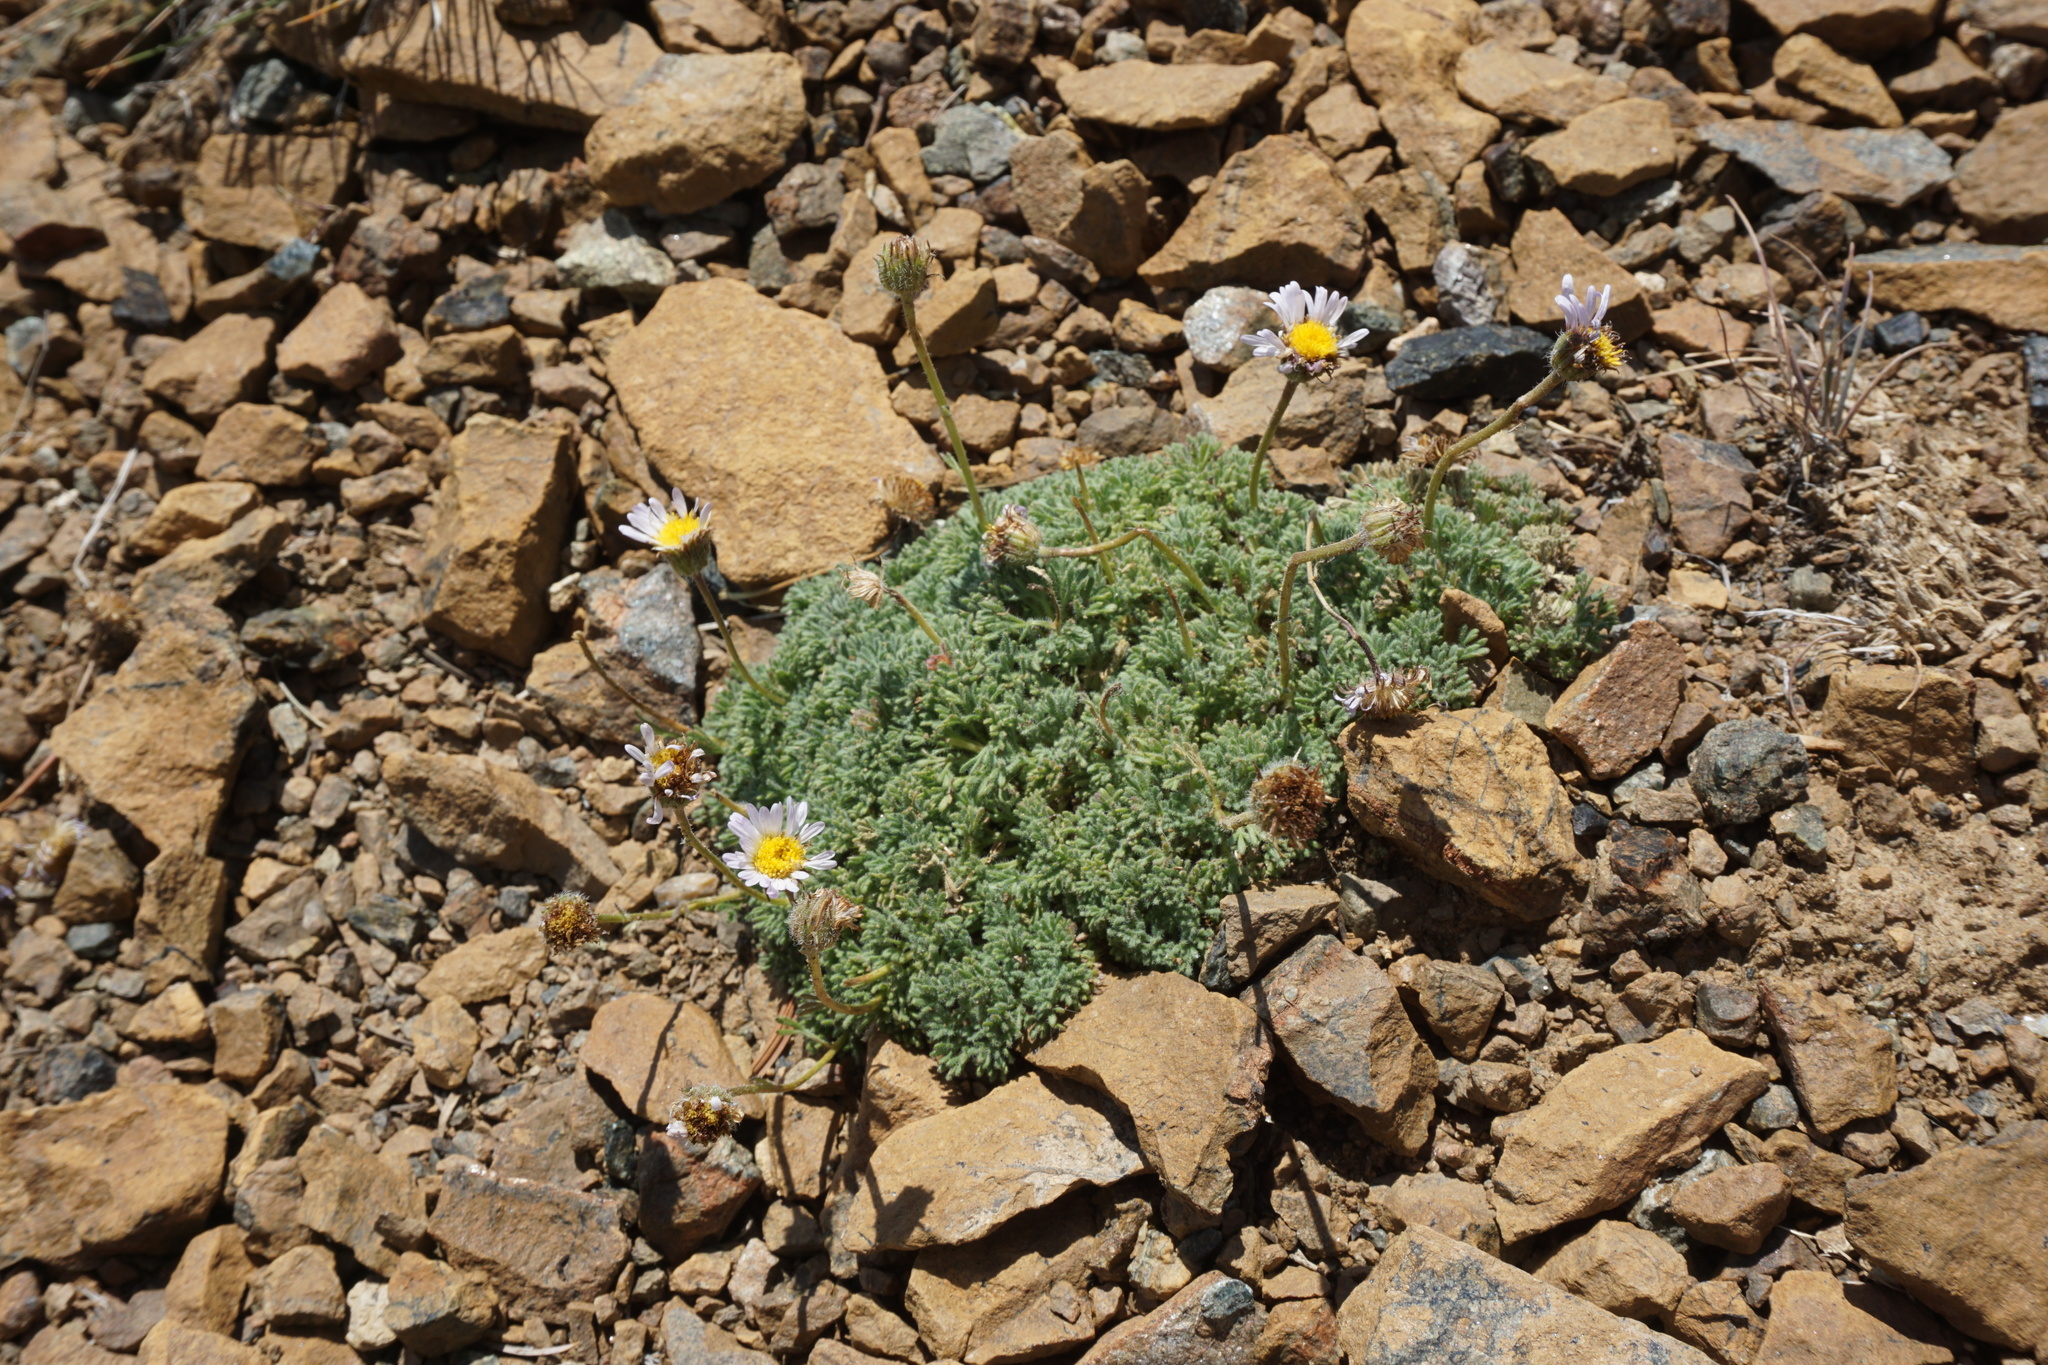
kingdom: Plantae
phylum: Tracheophyta
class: Magnoliopsida
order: Asterales
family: Asteraceae
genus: Erigeron
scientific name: Erigeron compositus
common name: Dwarf mountain fleabane
